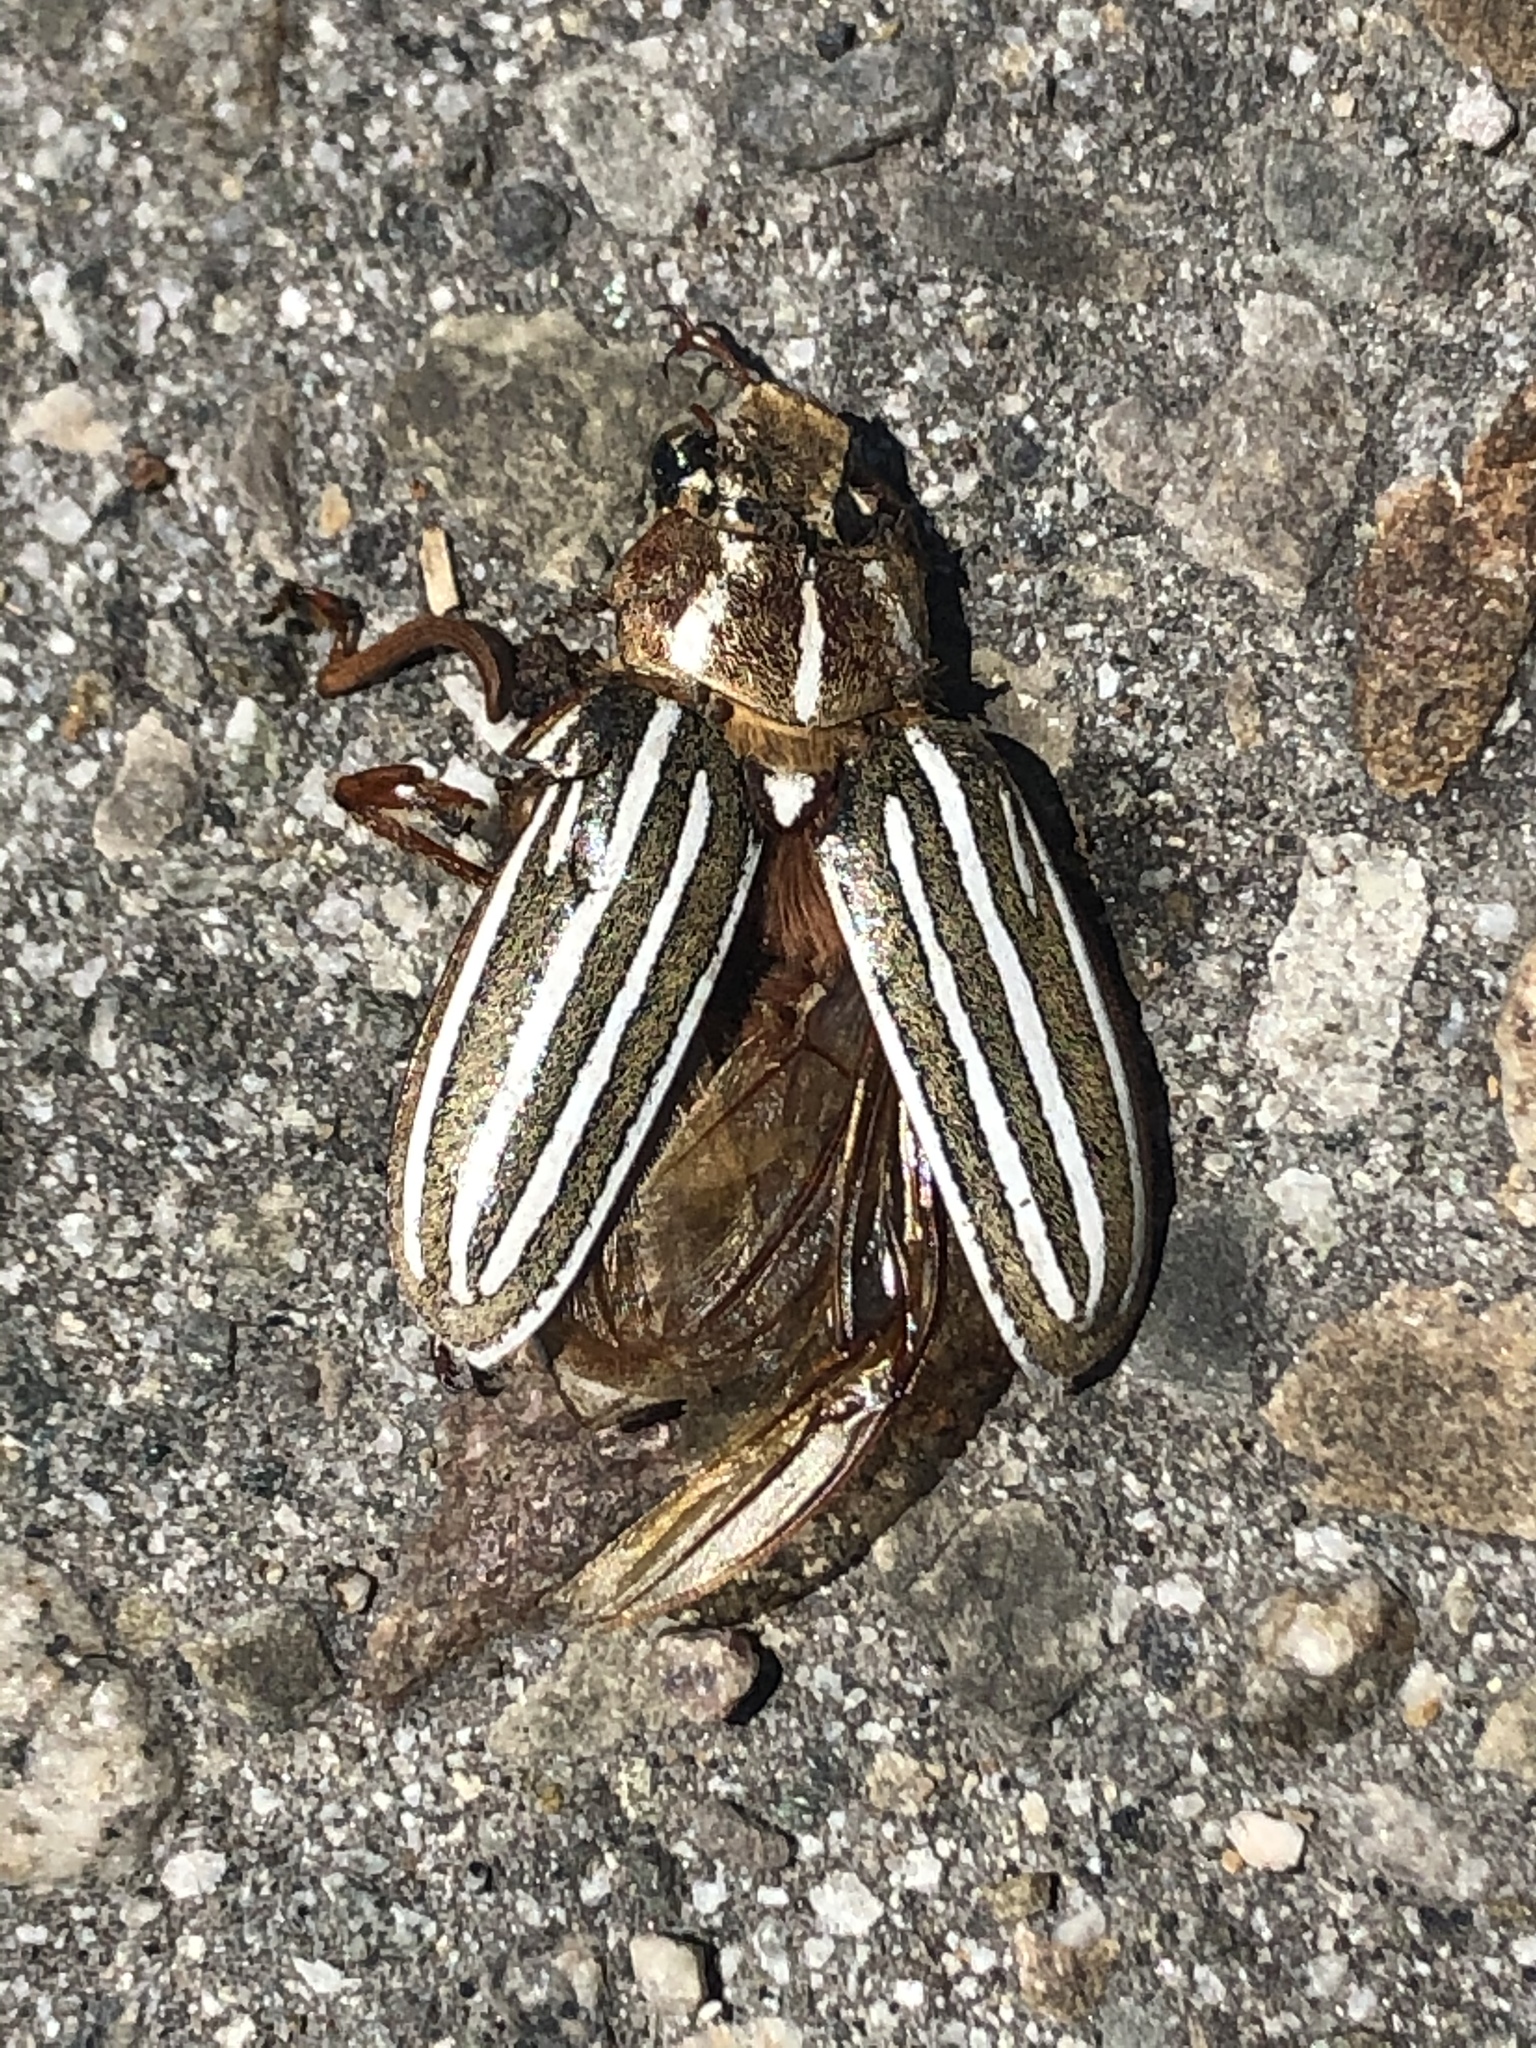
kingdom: Animalia
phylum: Arthropoda
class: Insecta
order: Coleoptera
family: Scarabaeidae
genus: Polyphylla
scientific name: Polyphylla decemlineata
